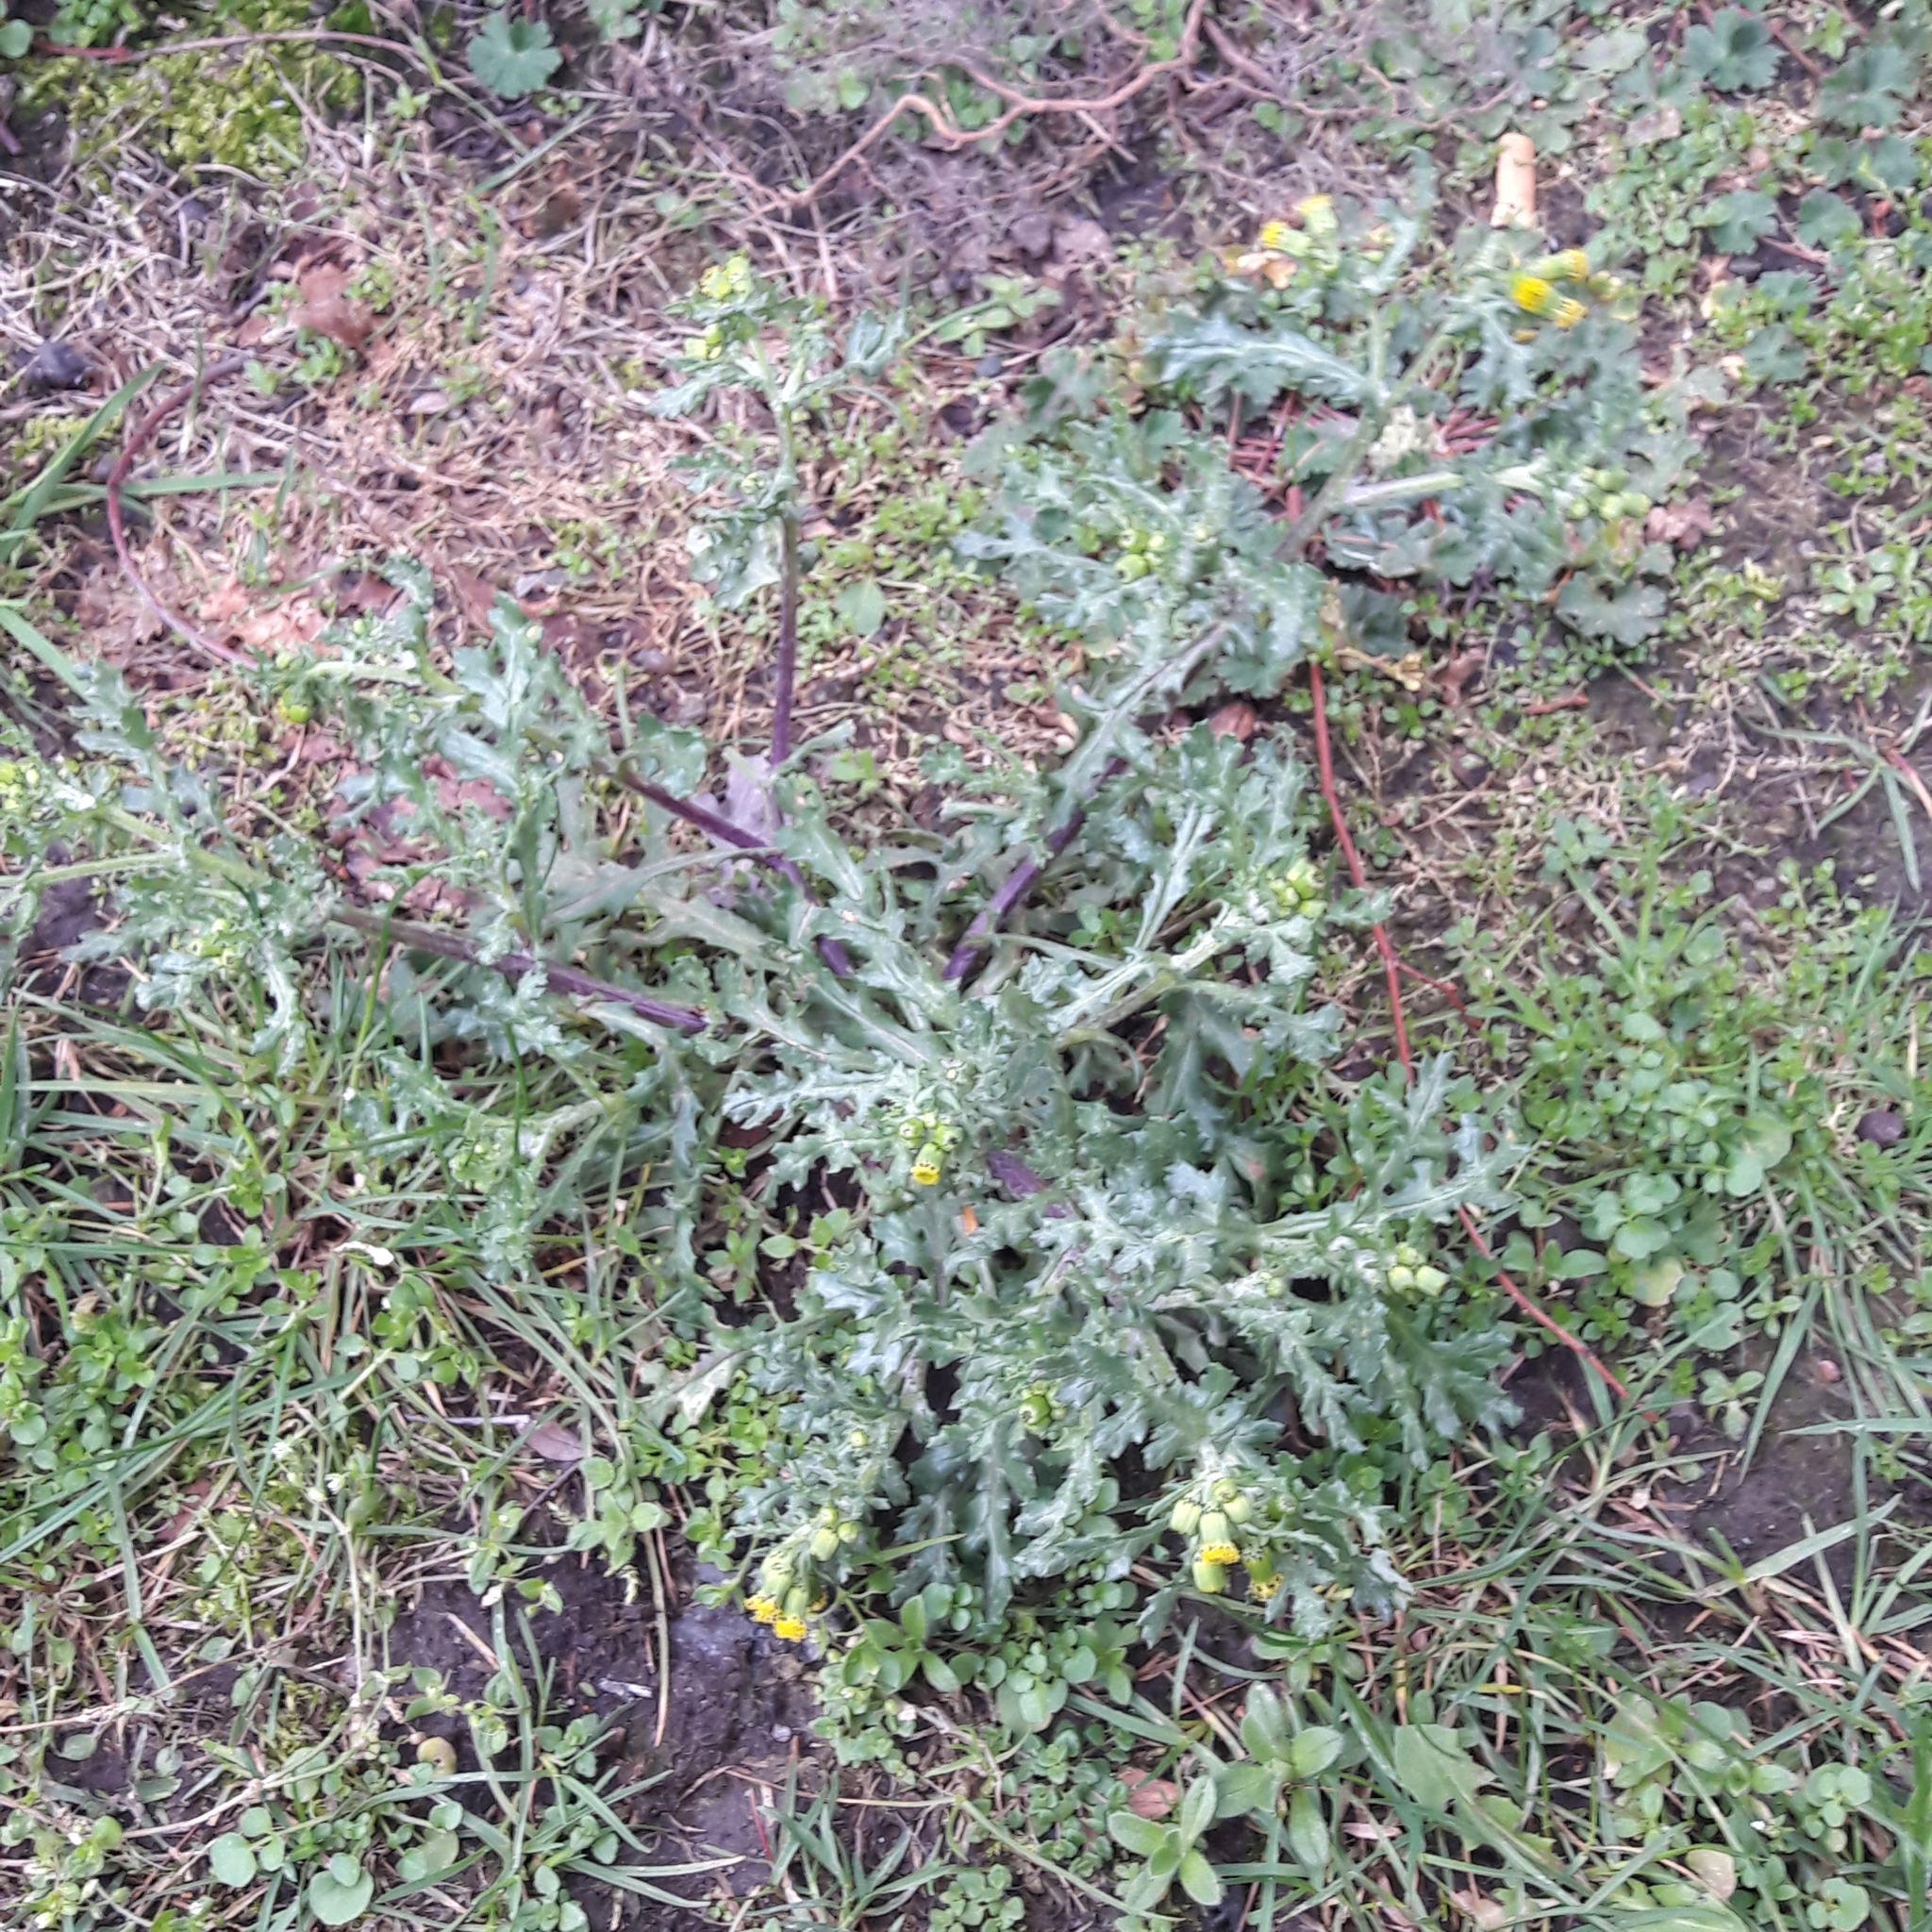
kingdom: Plantae
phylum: Tracheophyta
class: Magnoliopsida
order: Asterales
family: Asteraceae
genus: Senecio
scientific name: Senecio vulgaris
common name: Old-man-in-the-spring
